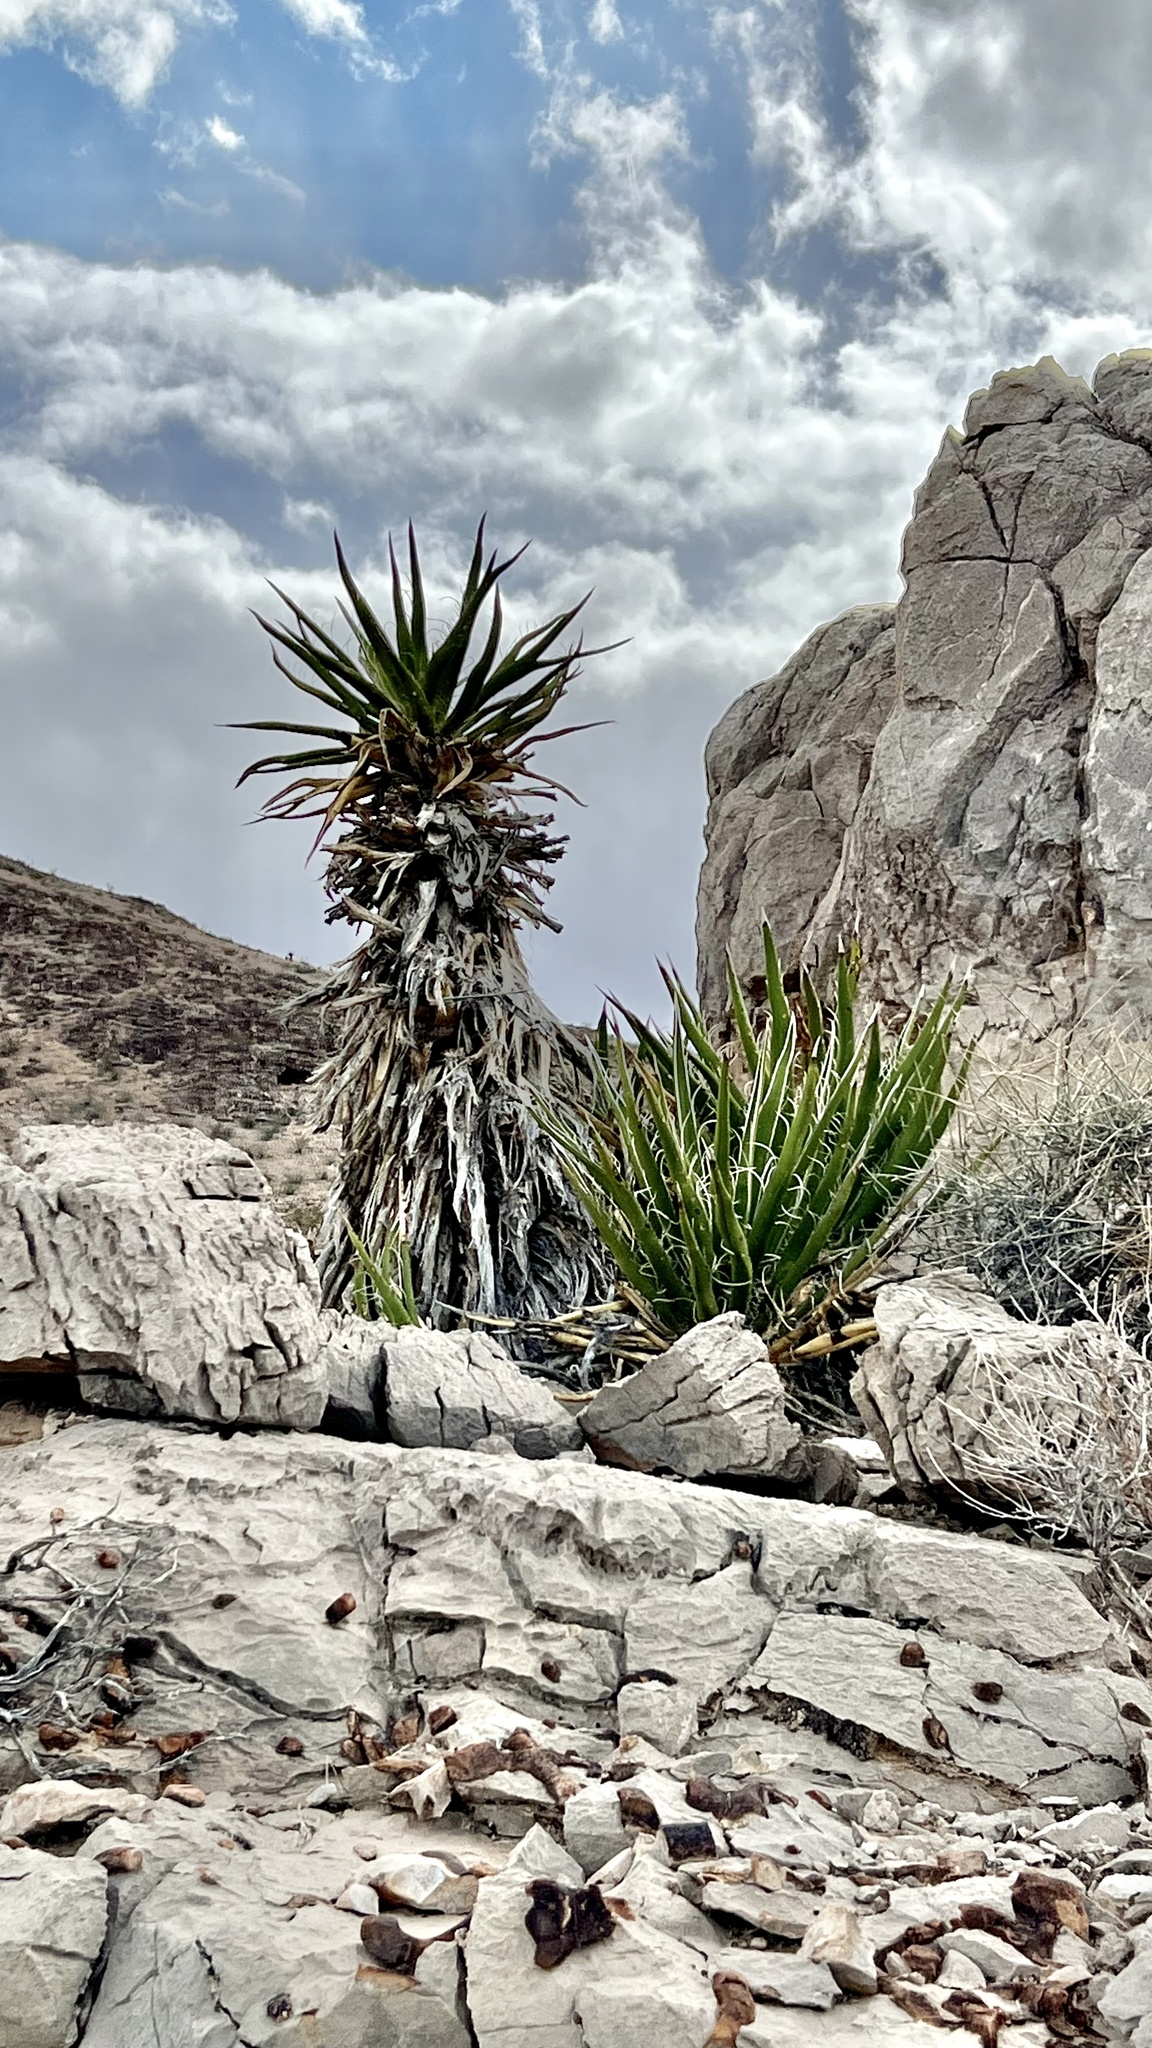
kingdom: Plantae
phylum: Tracheophyta
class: Liliopsida
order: Asparagales
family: Asparagaceae
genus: Yucca
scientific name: Yucca schidigera
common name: Mojave yucca
